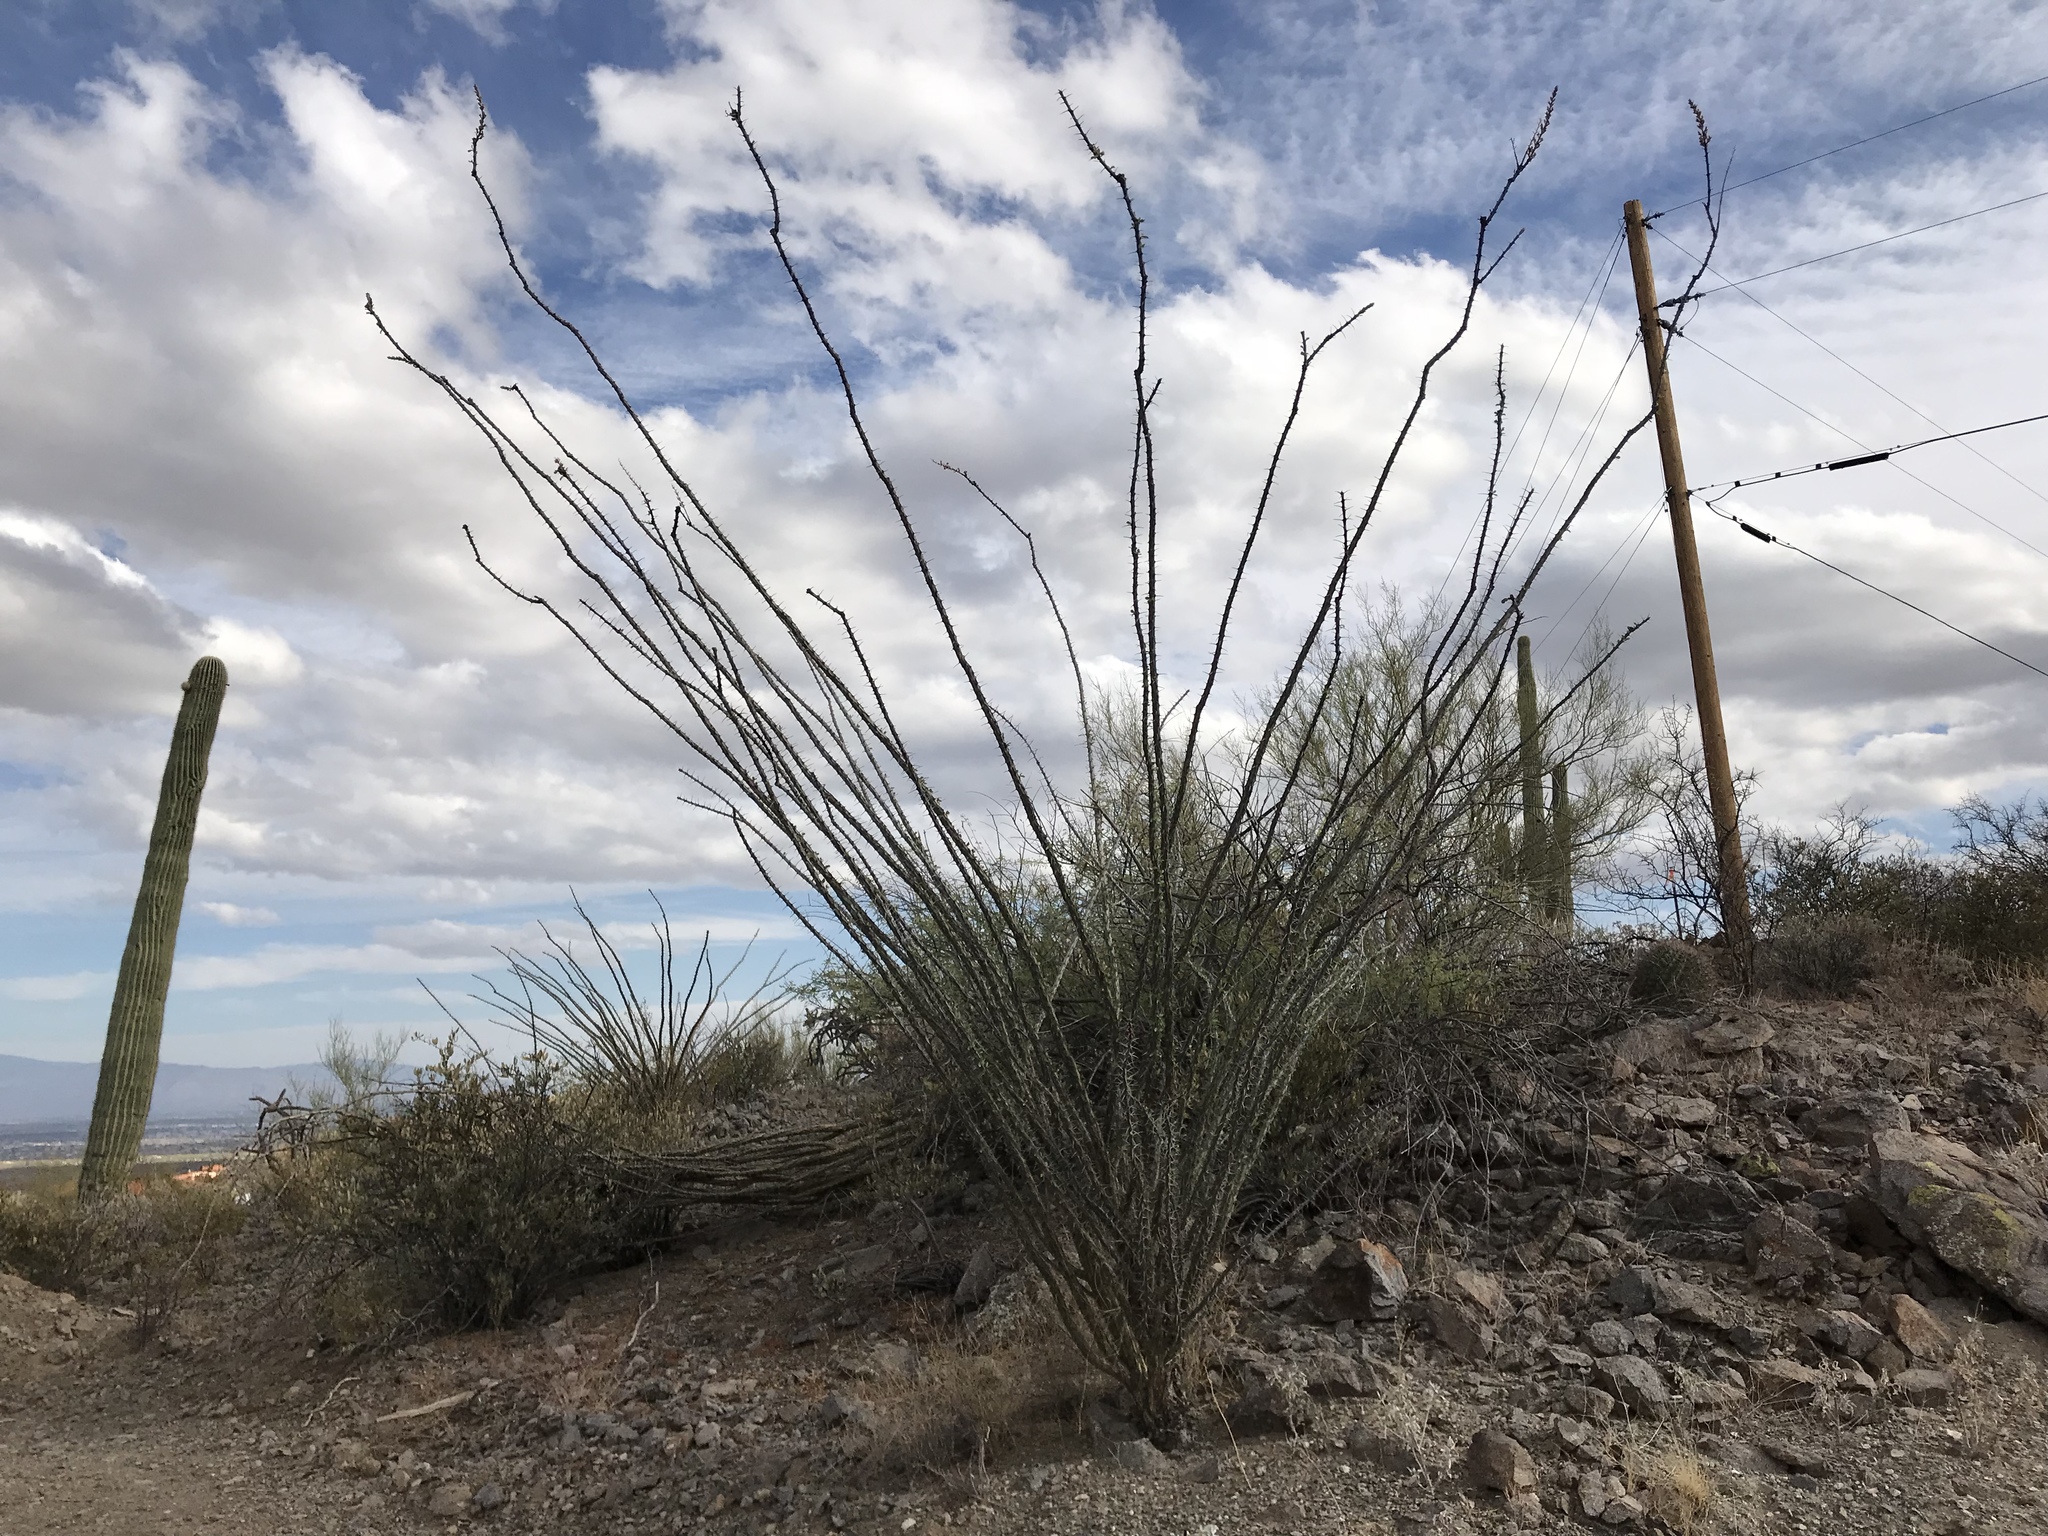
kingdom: Plantae
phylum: Tracheophyta
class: Magnoliopsida
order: Ericales
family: Fouquieriaceae
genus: Fouquieria
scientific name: Fouquieria splendens
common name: Vine-cactus
